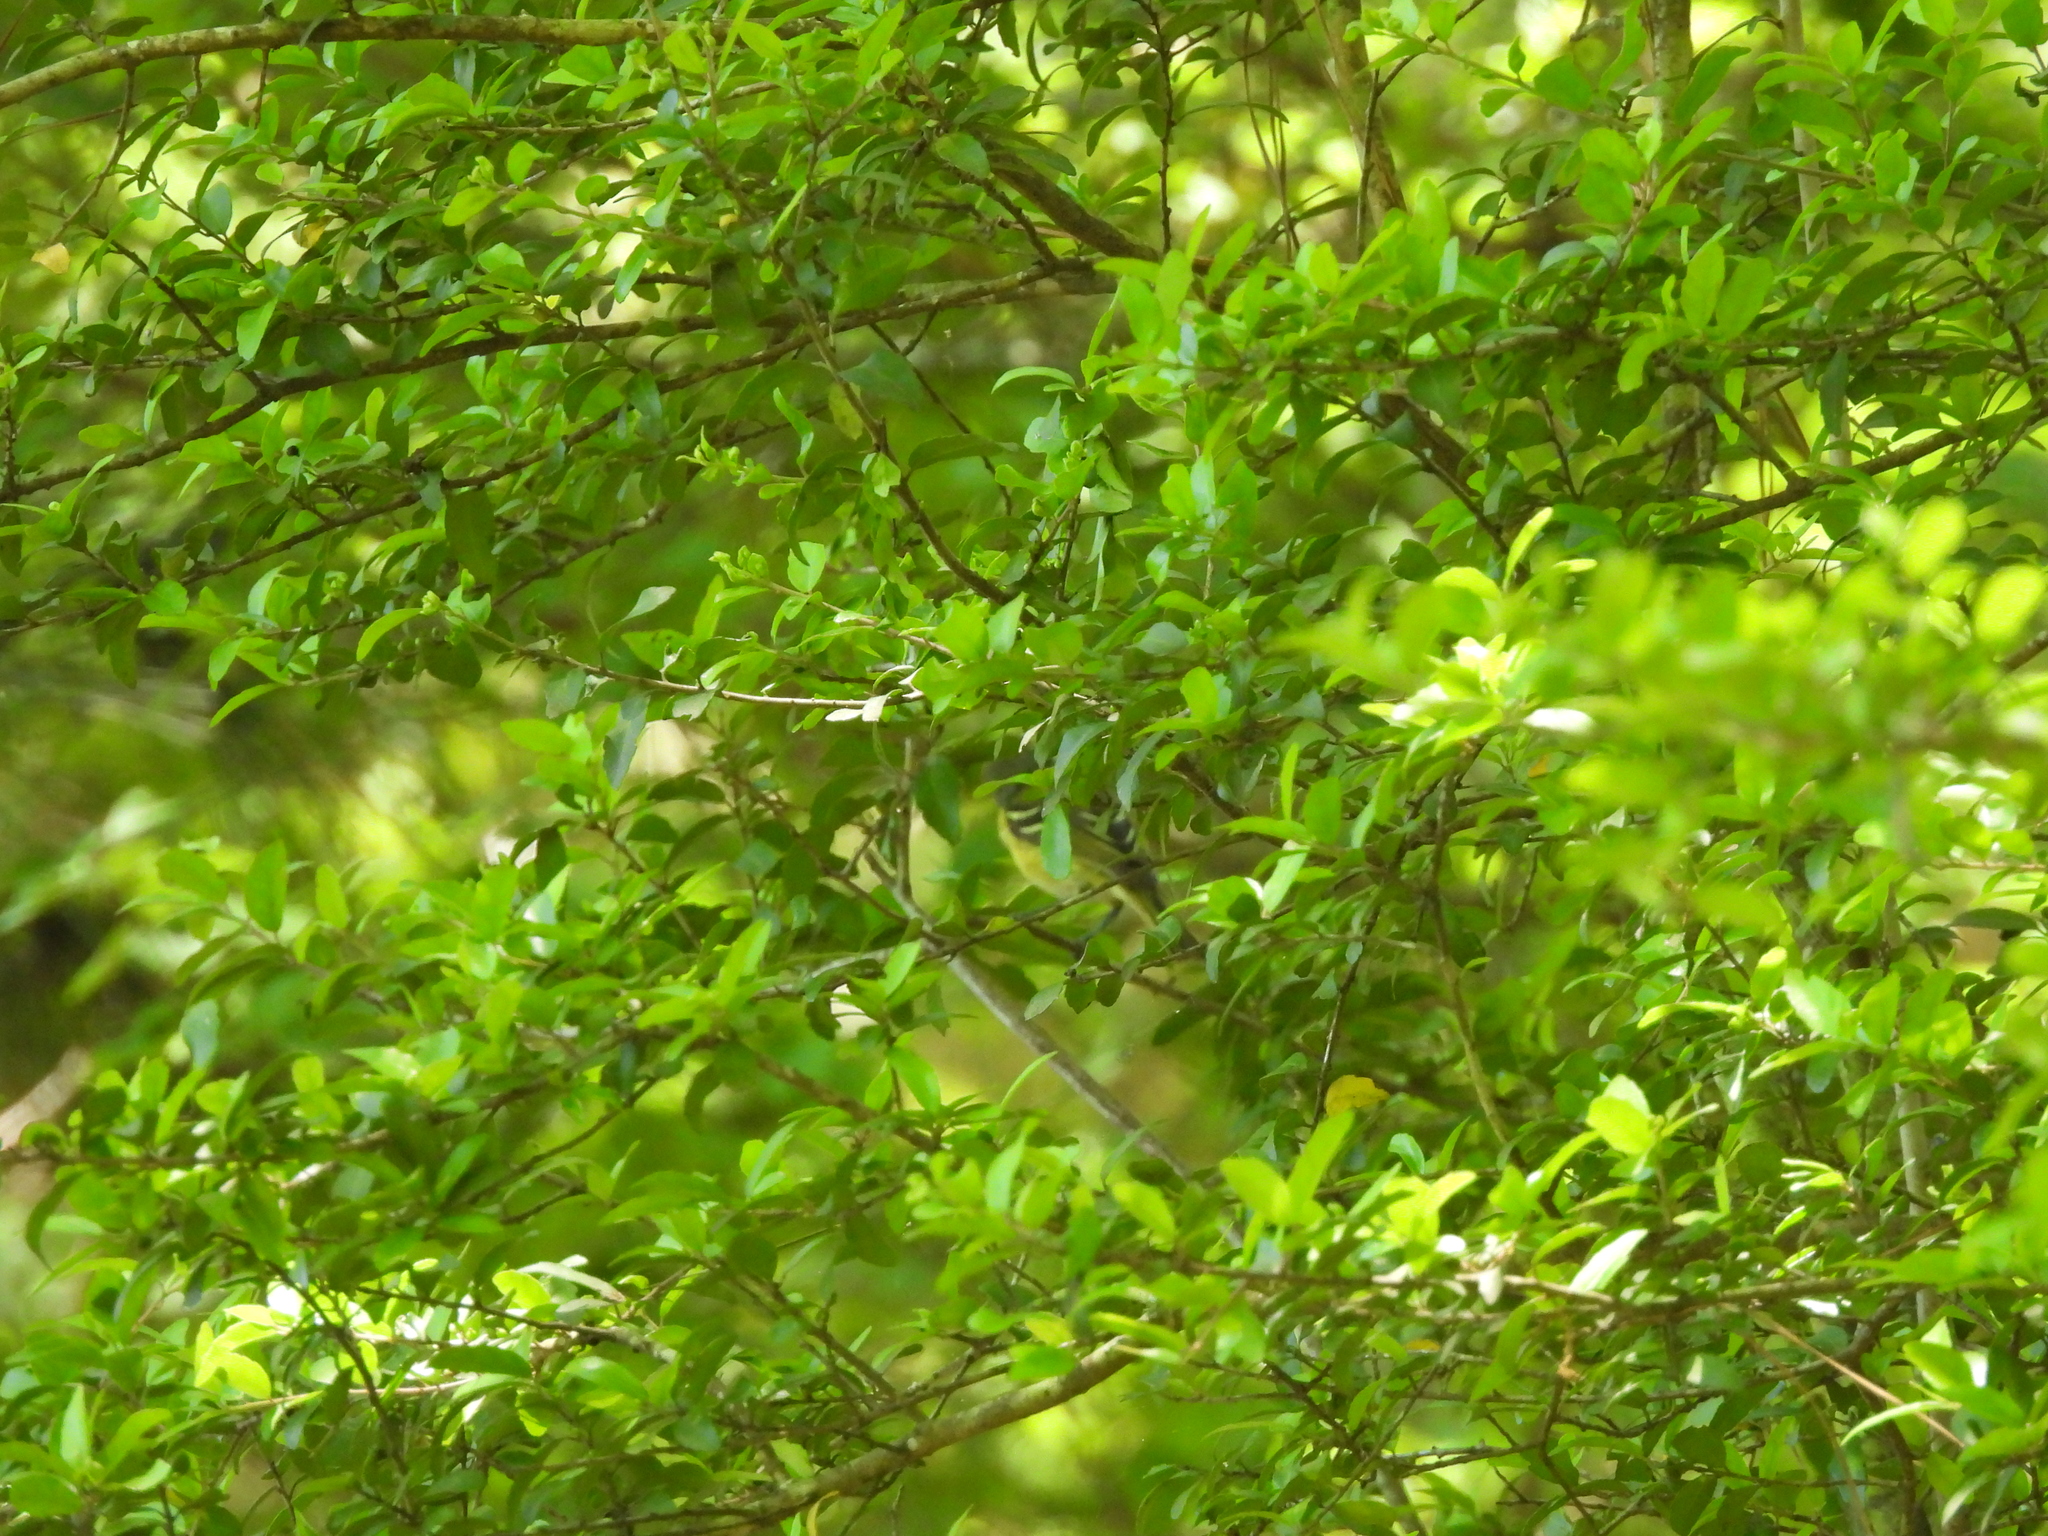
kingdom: Animalia
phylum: Chordata
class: Aves
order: Passeriformes
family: Vireonidae
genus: Vireo
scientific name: Vireo griseus
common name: White-eyed vireo
